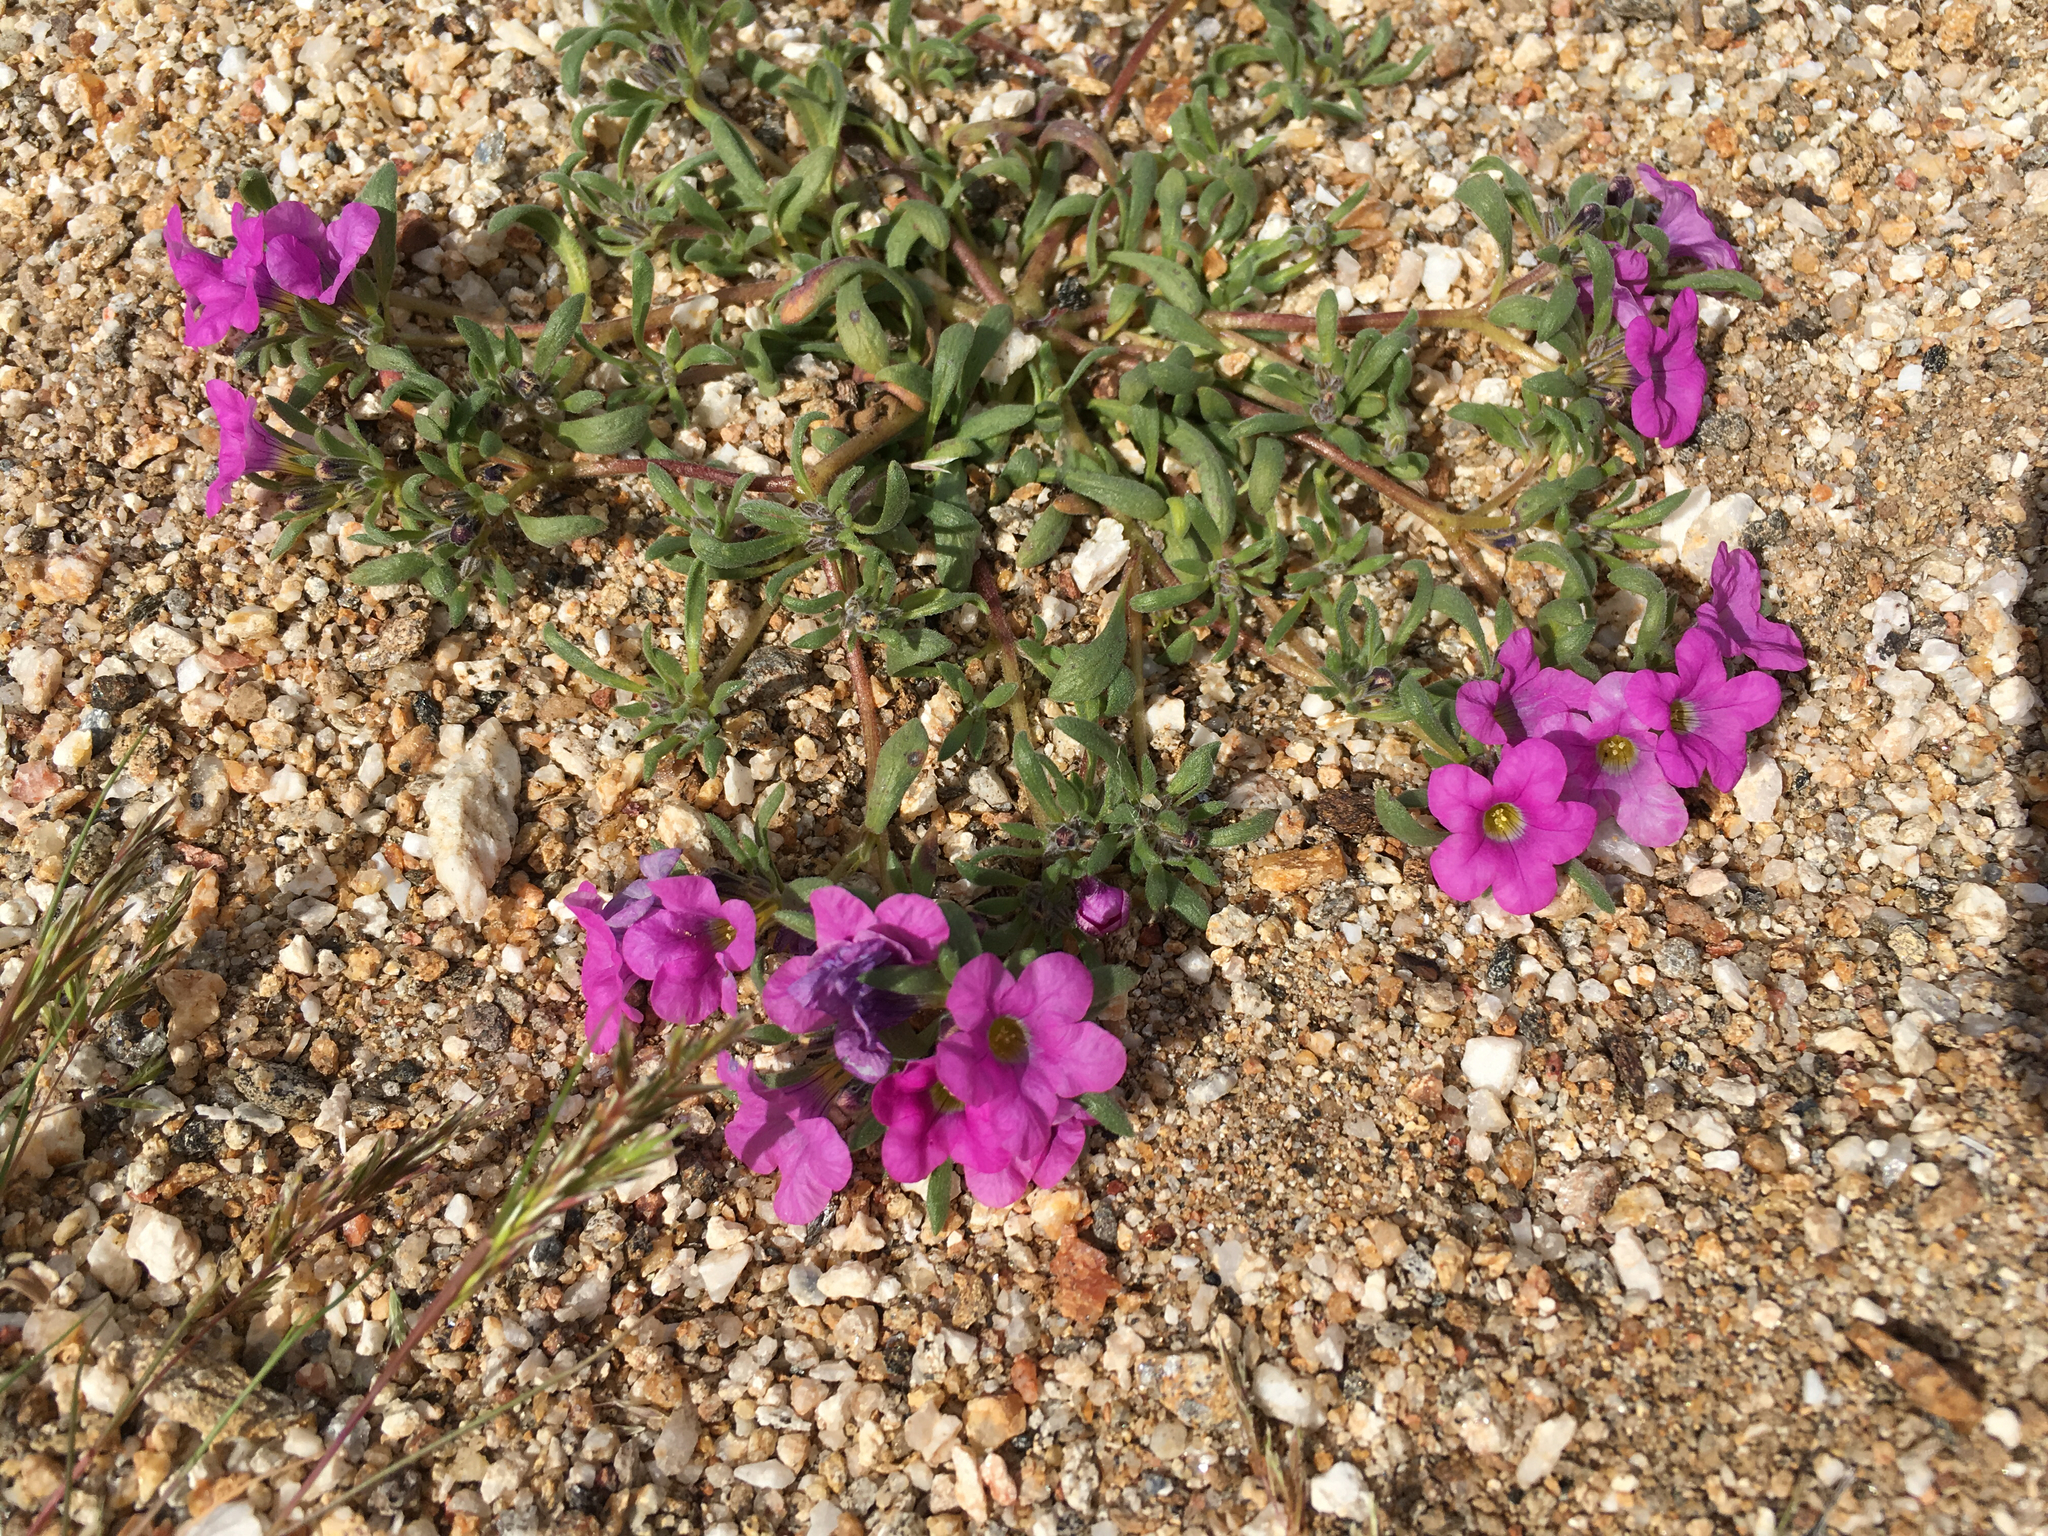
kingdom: Plantae
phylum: Tracheophyta
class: Magnoliopsida
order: Boraginales
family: Namaceae
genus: Nama
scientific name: Nama demissa
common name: Leafy nama
